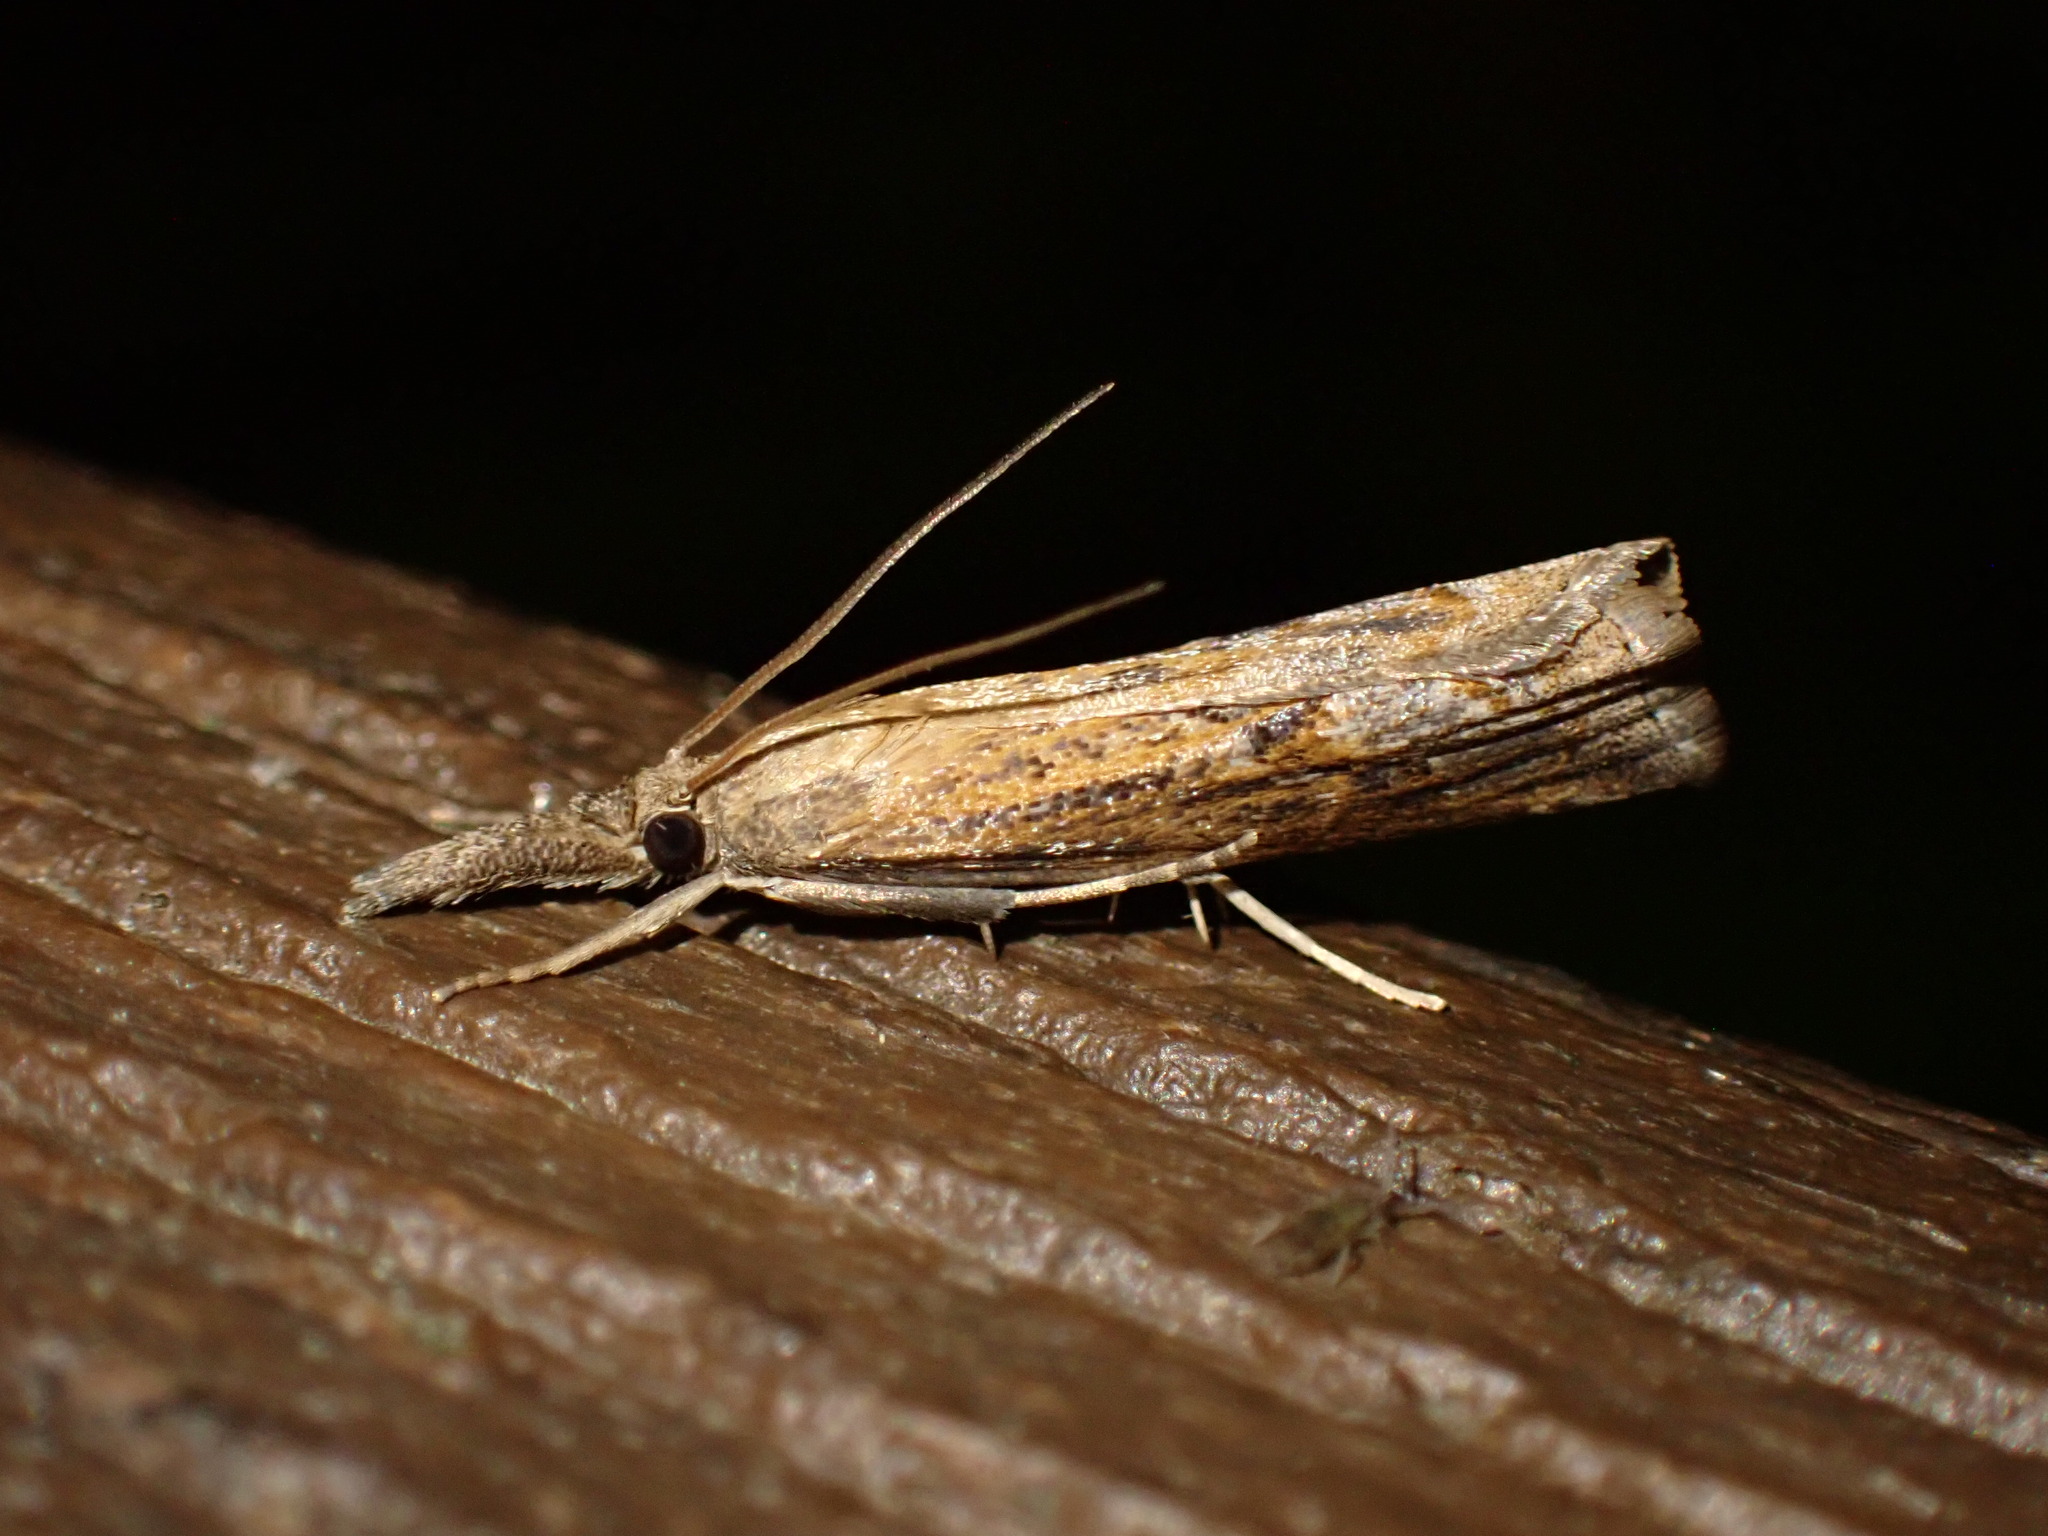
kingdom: Animalia
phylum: Arthropoda
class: Insecta
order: Lepidoptera
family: Crambidae
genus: Neodactria
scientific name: Neodactria
